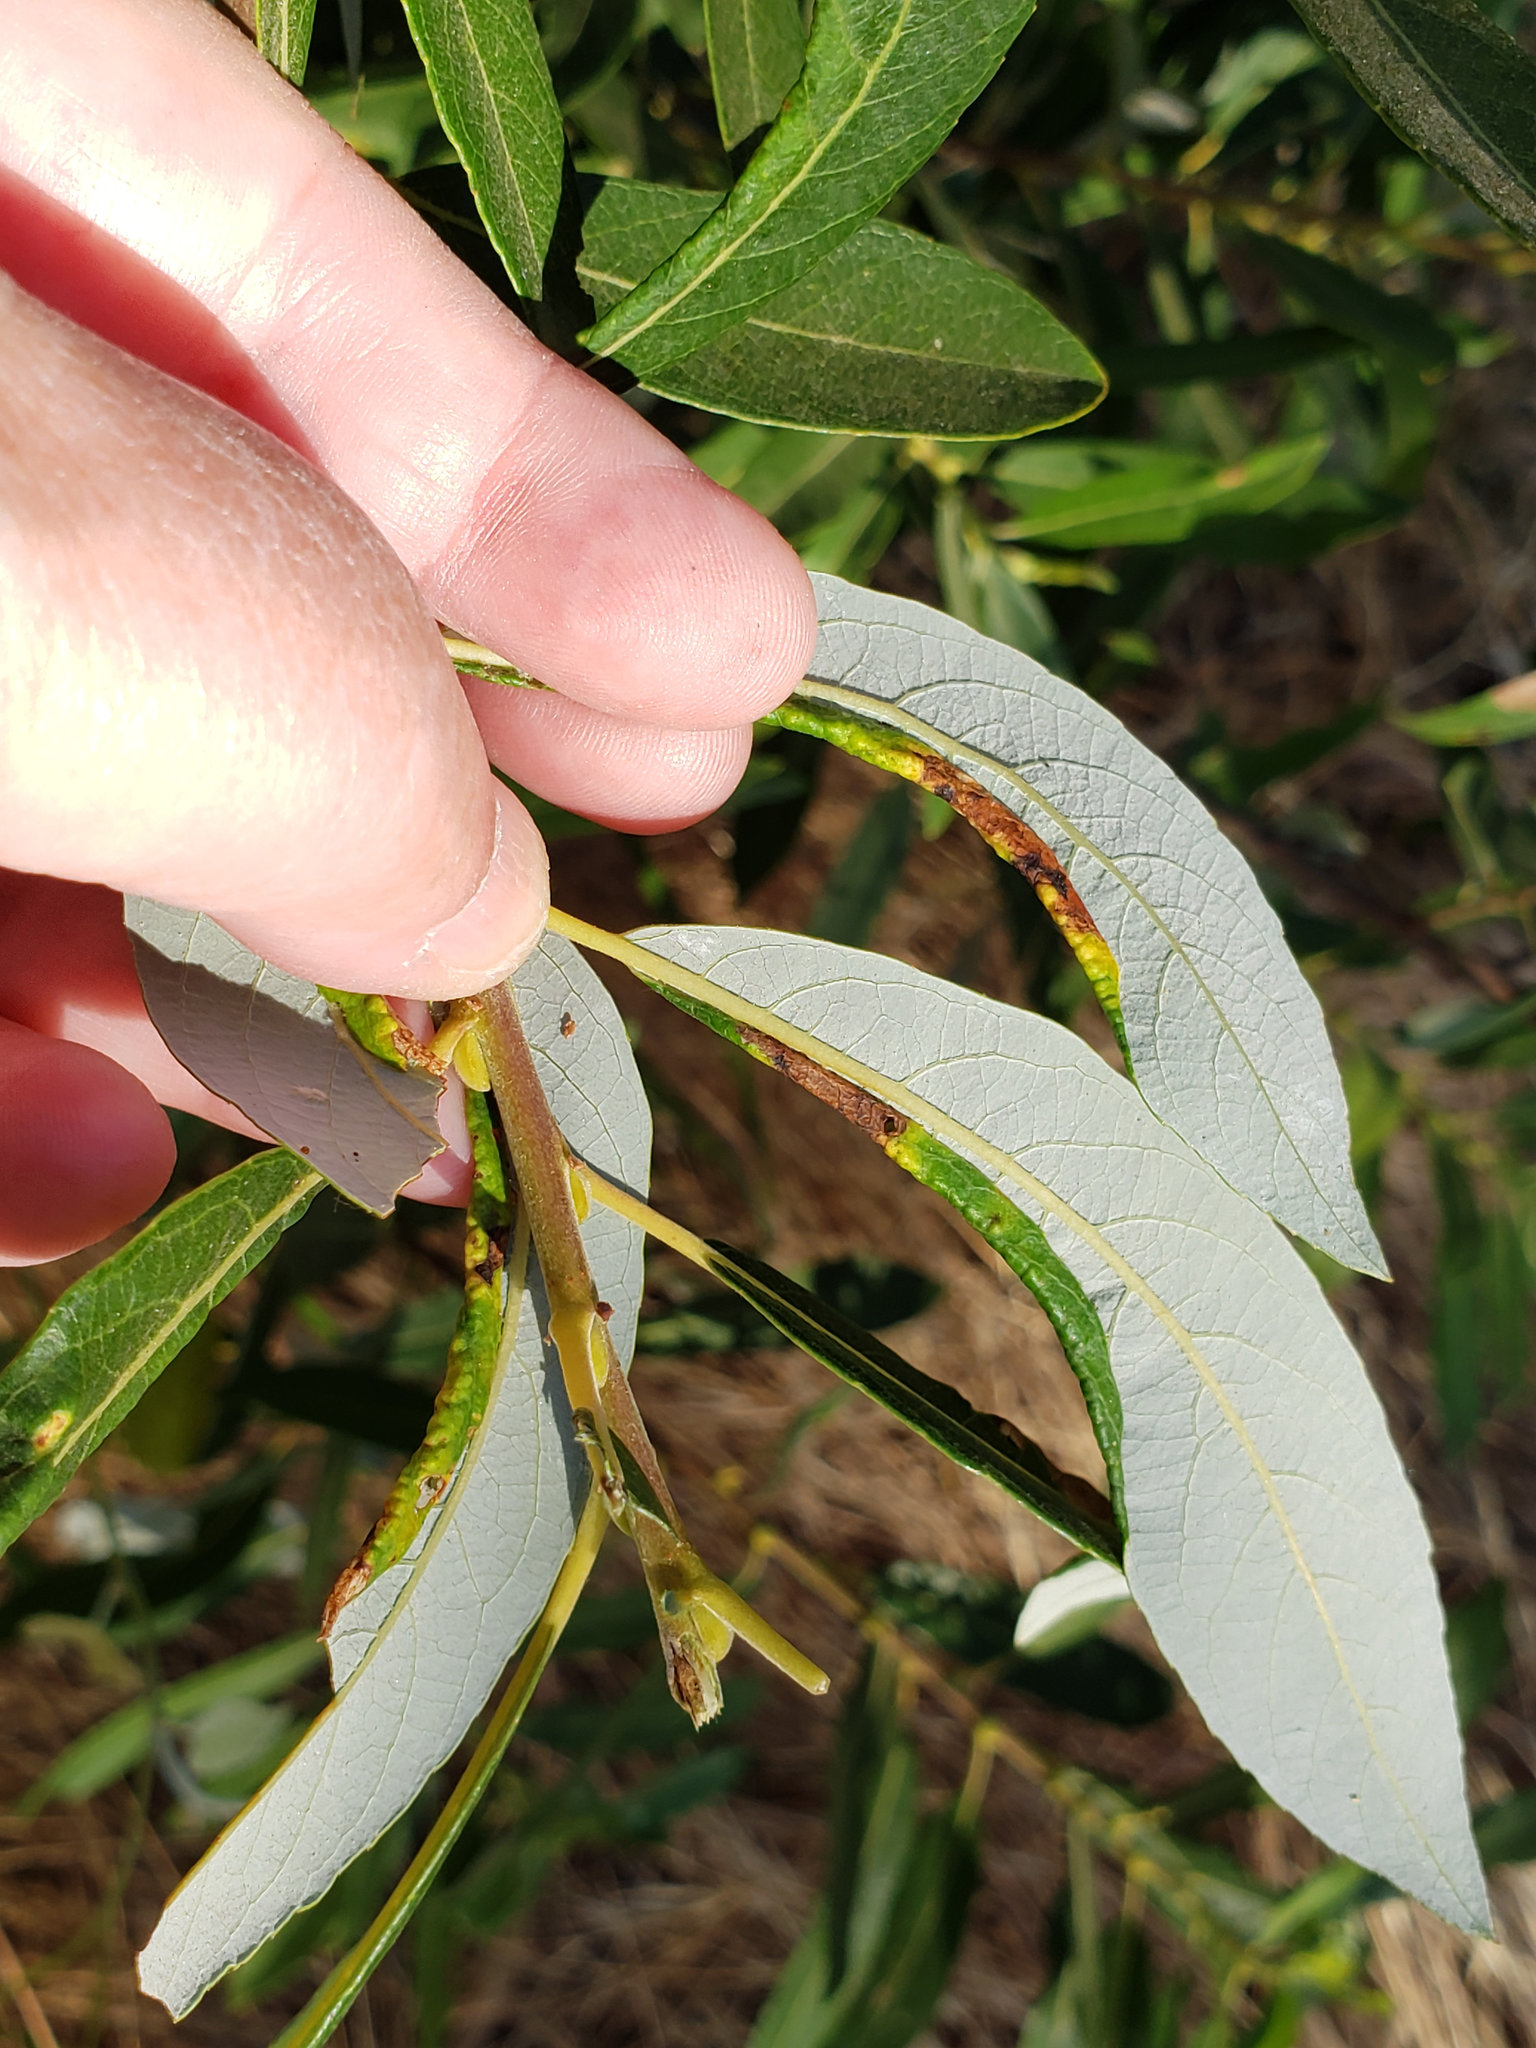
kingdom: Animalia
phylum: Arthropoda
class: Insecta
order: Hymenoptera
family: Tenthredinidae
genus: Euura
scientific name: Euura
